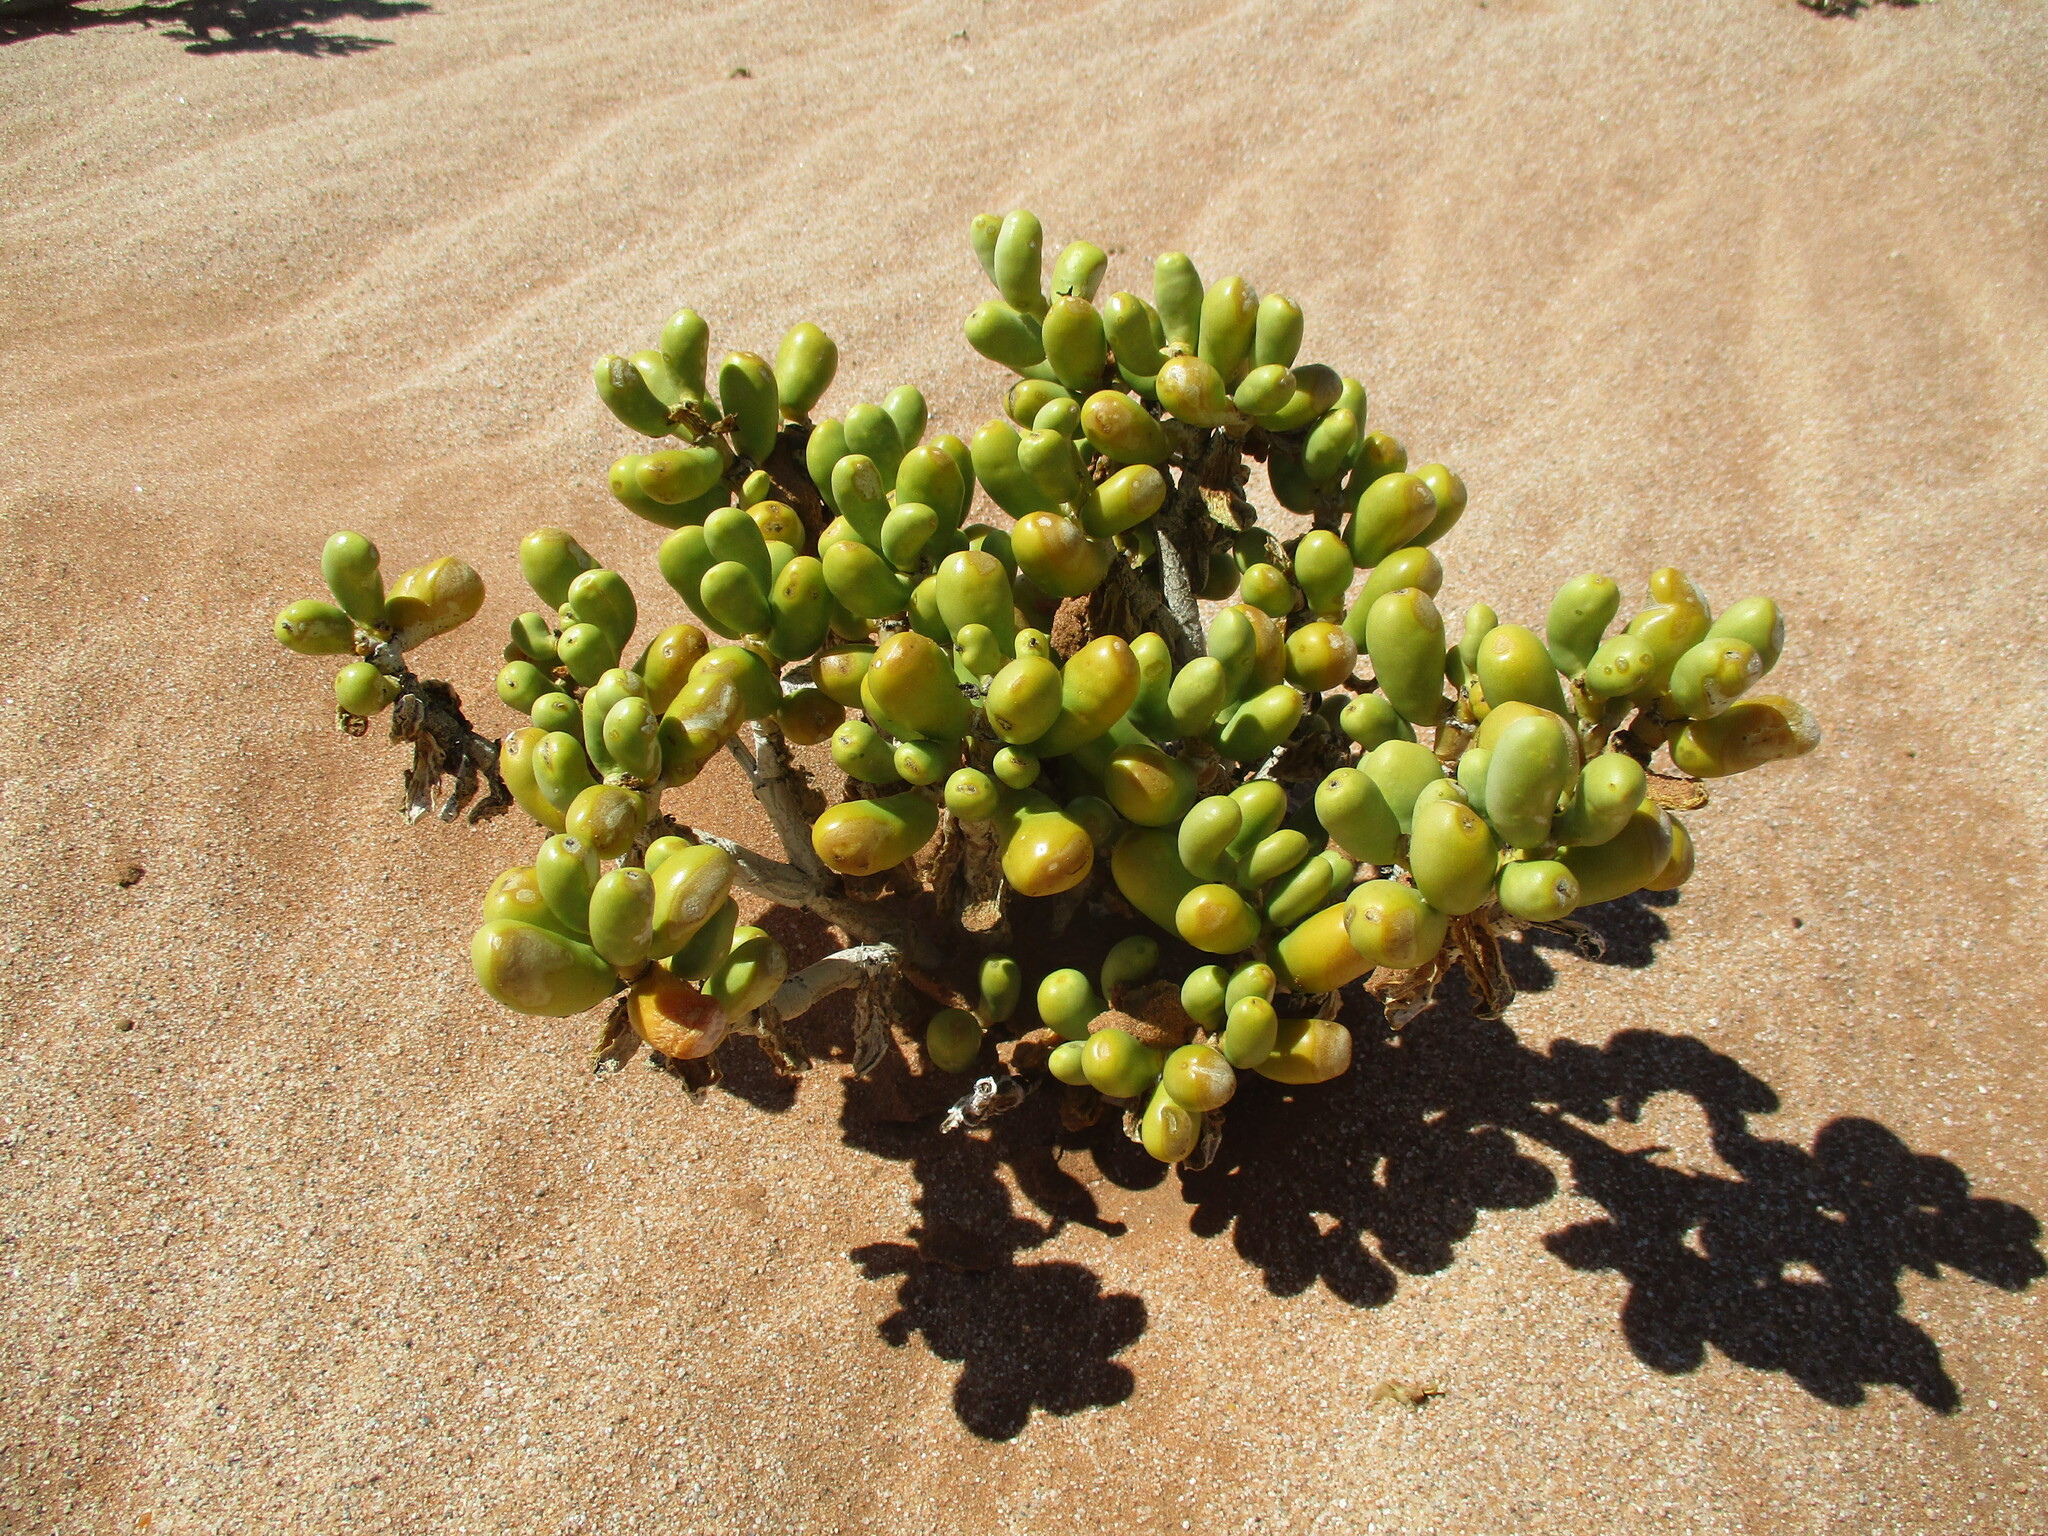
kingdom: Plantae
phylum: Tracheophyta
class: Magnoliopsida
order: Zygophyllales
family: Zygophyllaceae
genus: Augea
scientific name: Augea capensis
